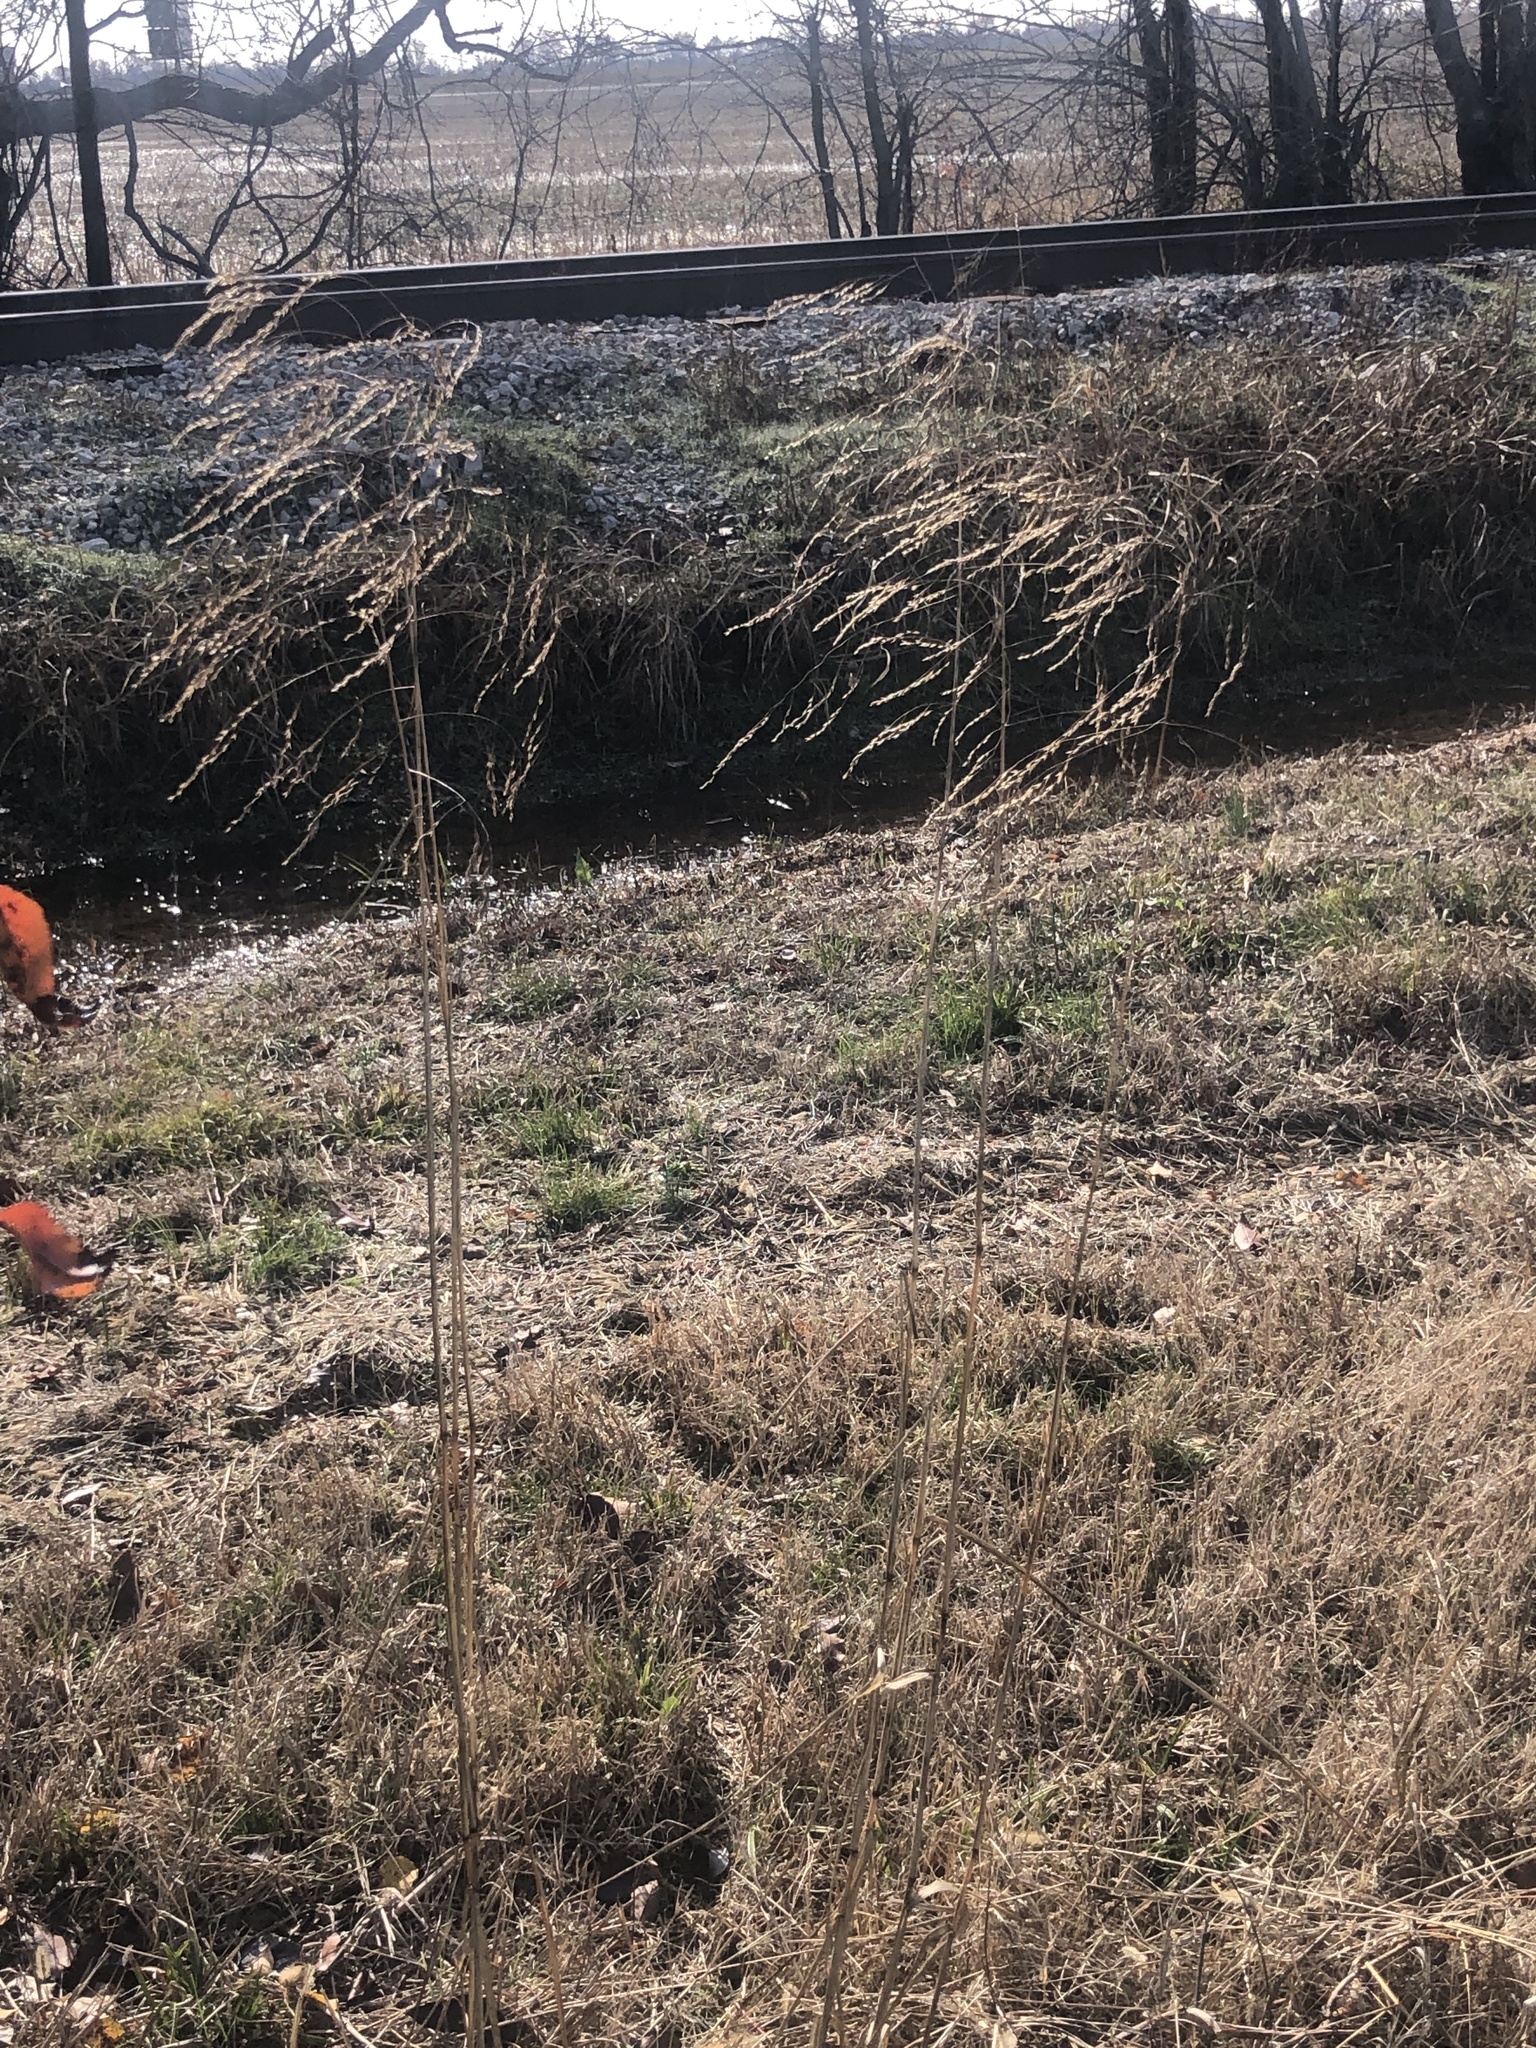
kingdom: Plantae
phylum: Tracheophyta
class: Liliopsida
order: Poales
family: Poaceae
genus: Tridens
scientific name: Tridens flavus
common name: Purpletop
